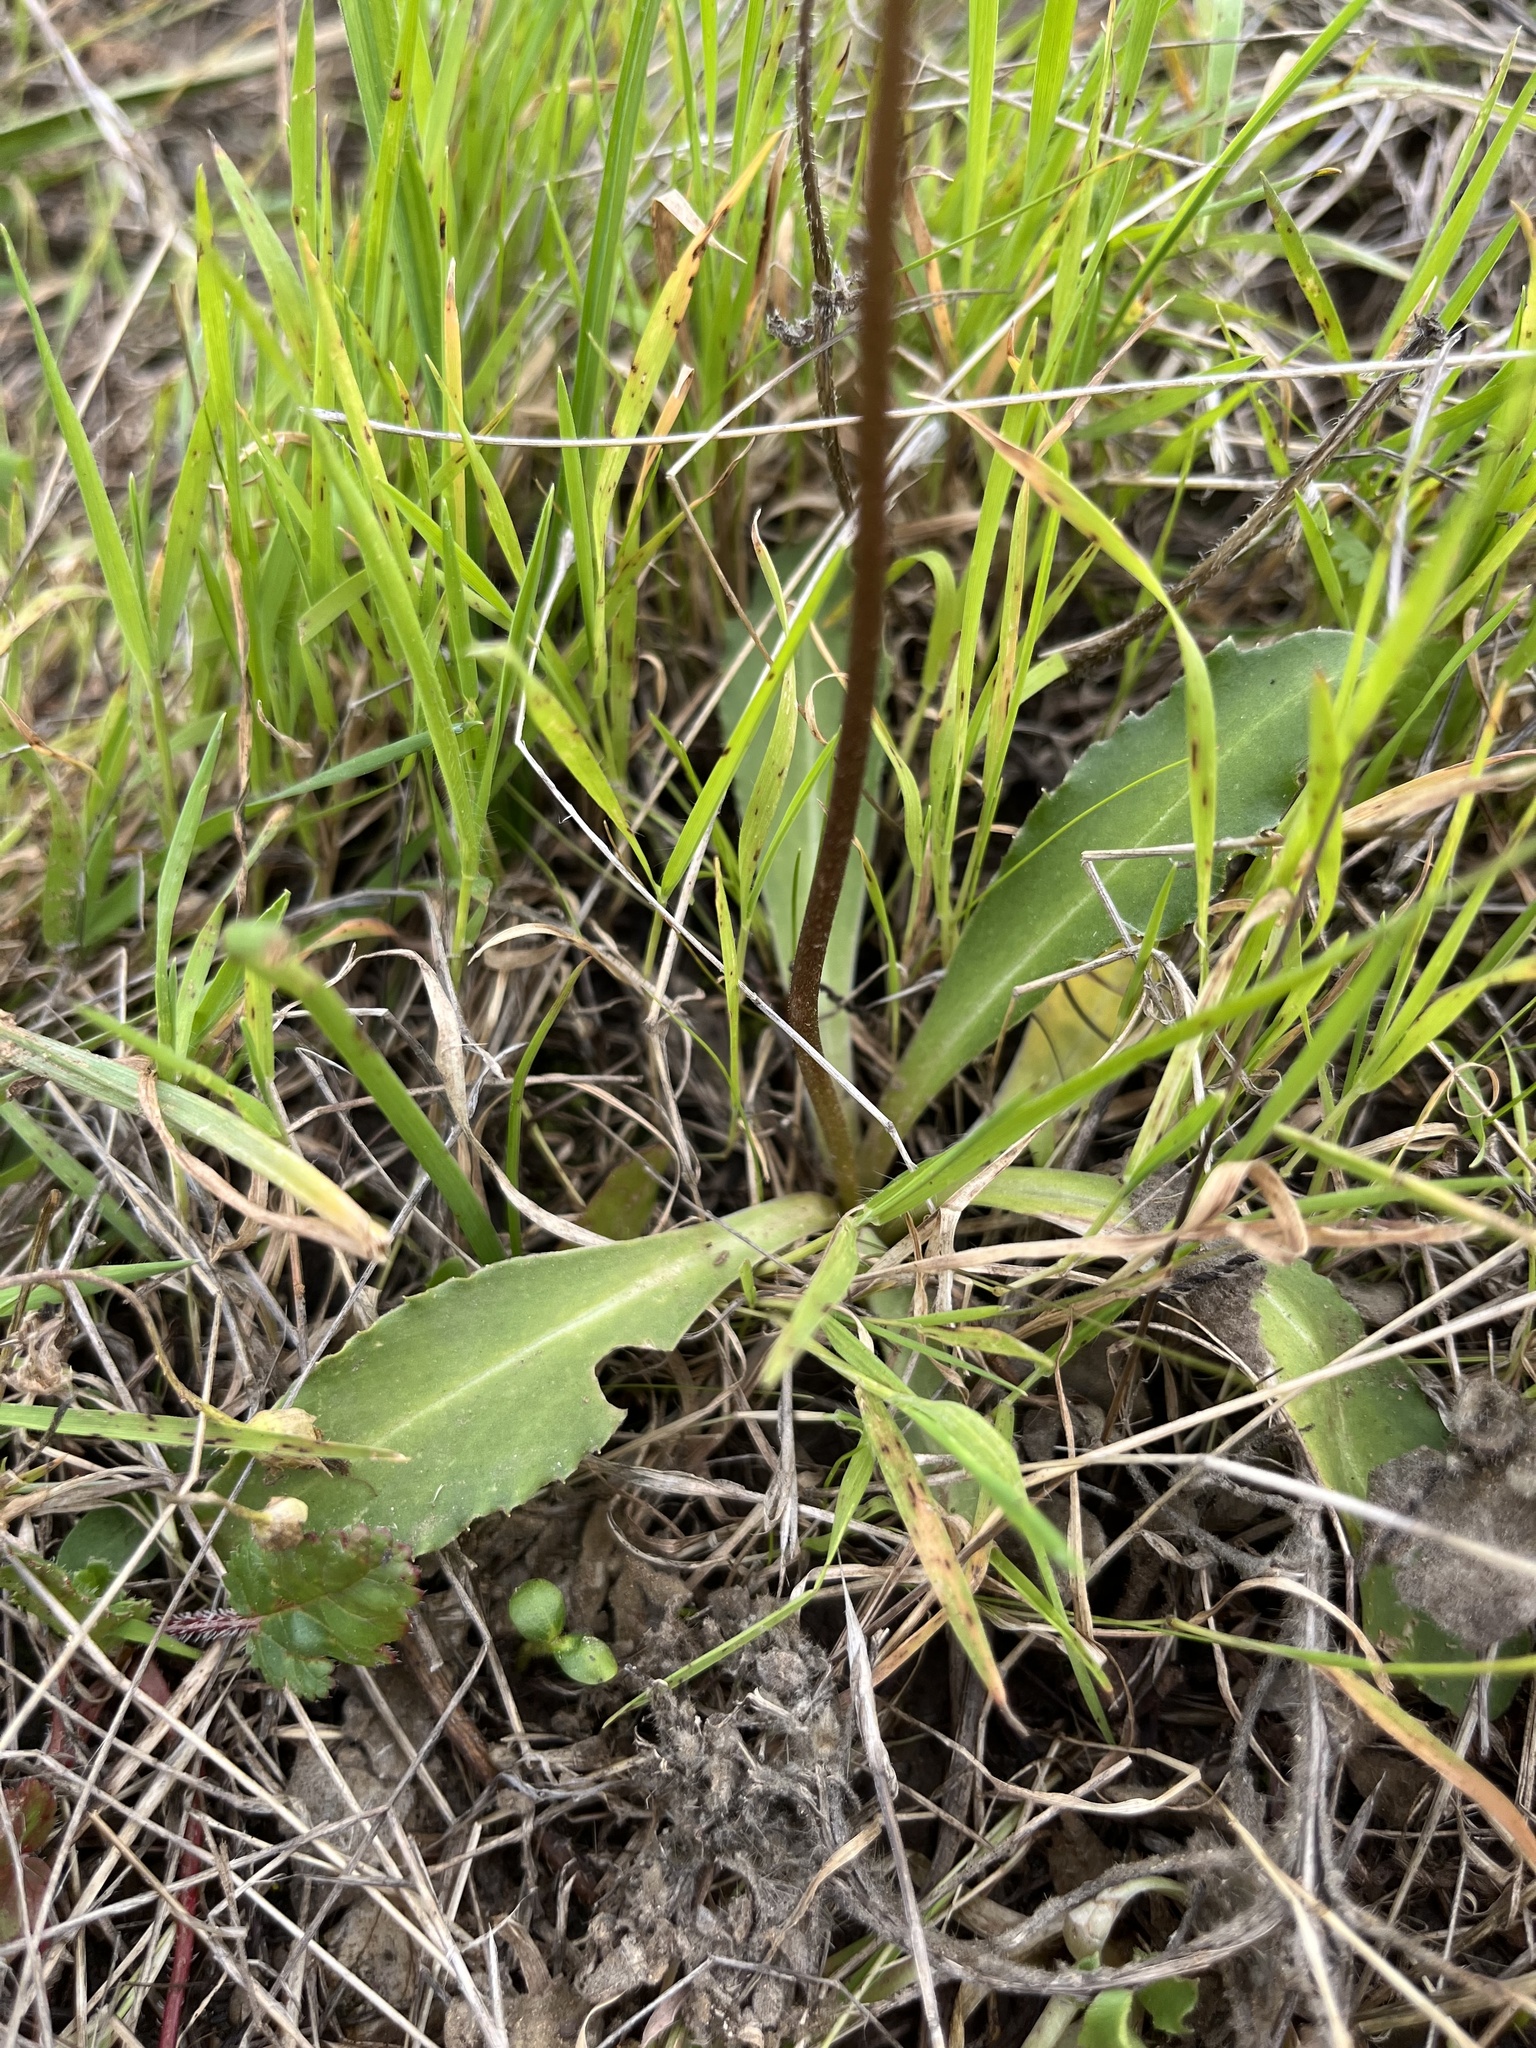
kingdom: Plantae
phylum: Tracheophyta
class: Magnoliopsida
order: Ericales
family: Primulaceae
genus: Dodecatheon
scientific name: Dodecatheon clevelandii
